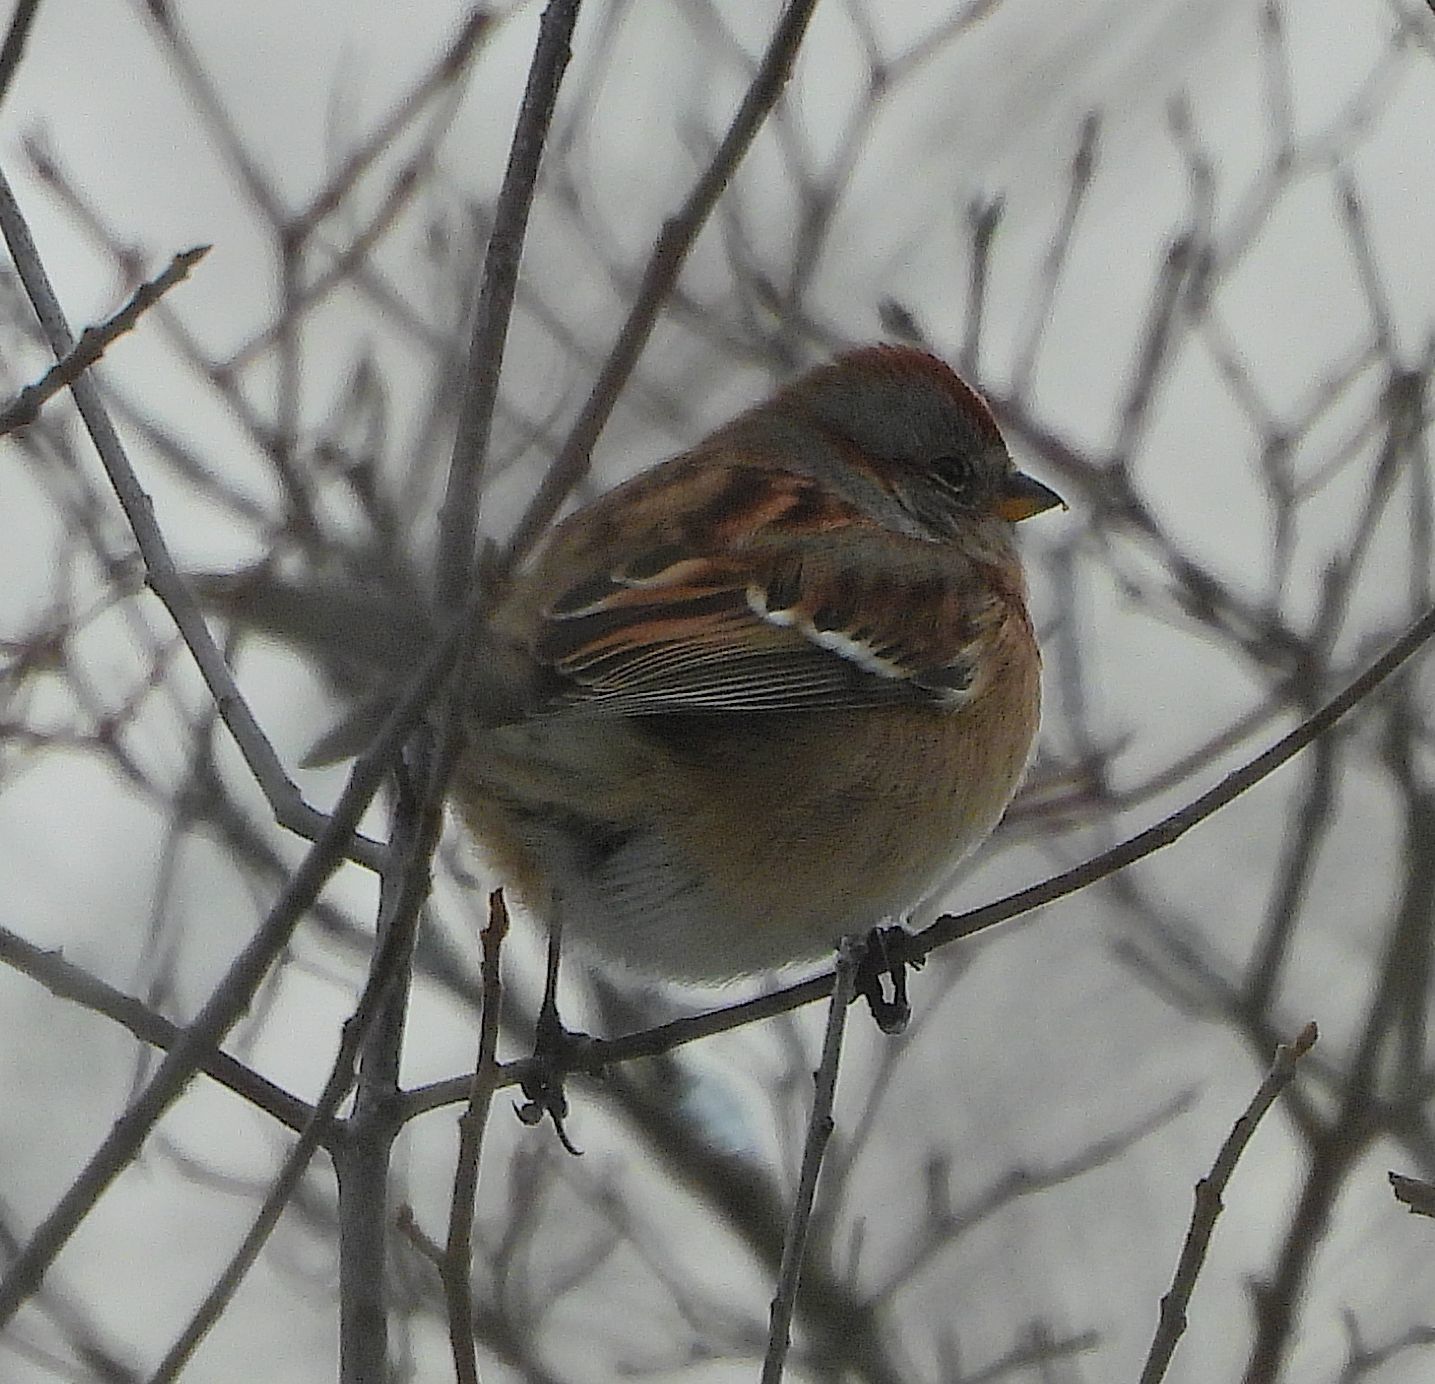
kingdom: Animalia
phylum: Chordata
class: Aves
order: Passeriformes
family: Passerellidae
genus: Spizelloides
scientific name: Spizelloides arborea
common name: American tree sparrow
